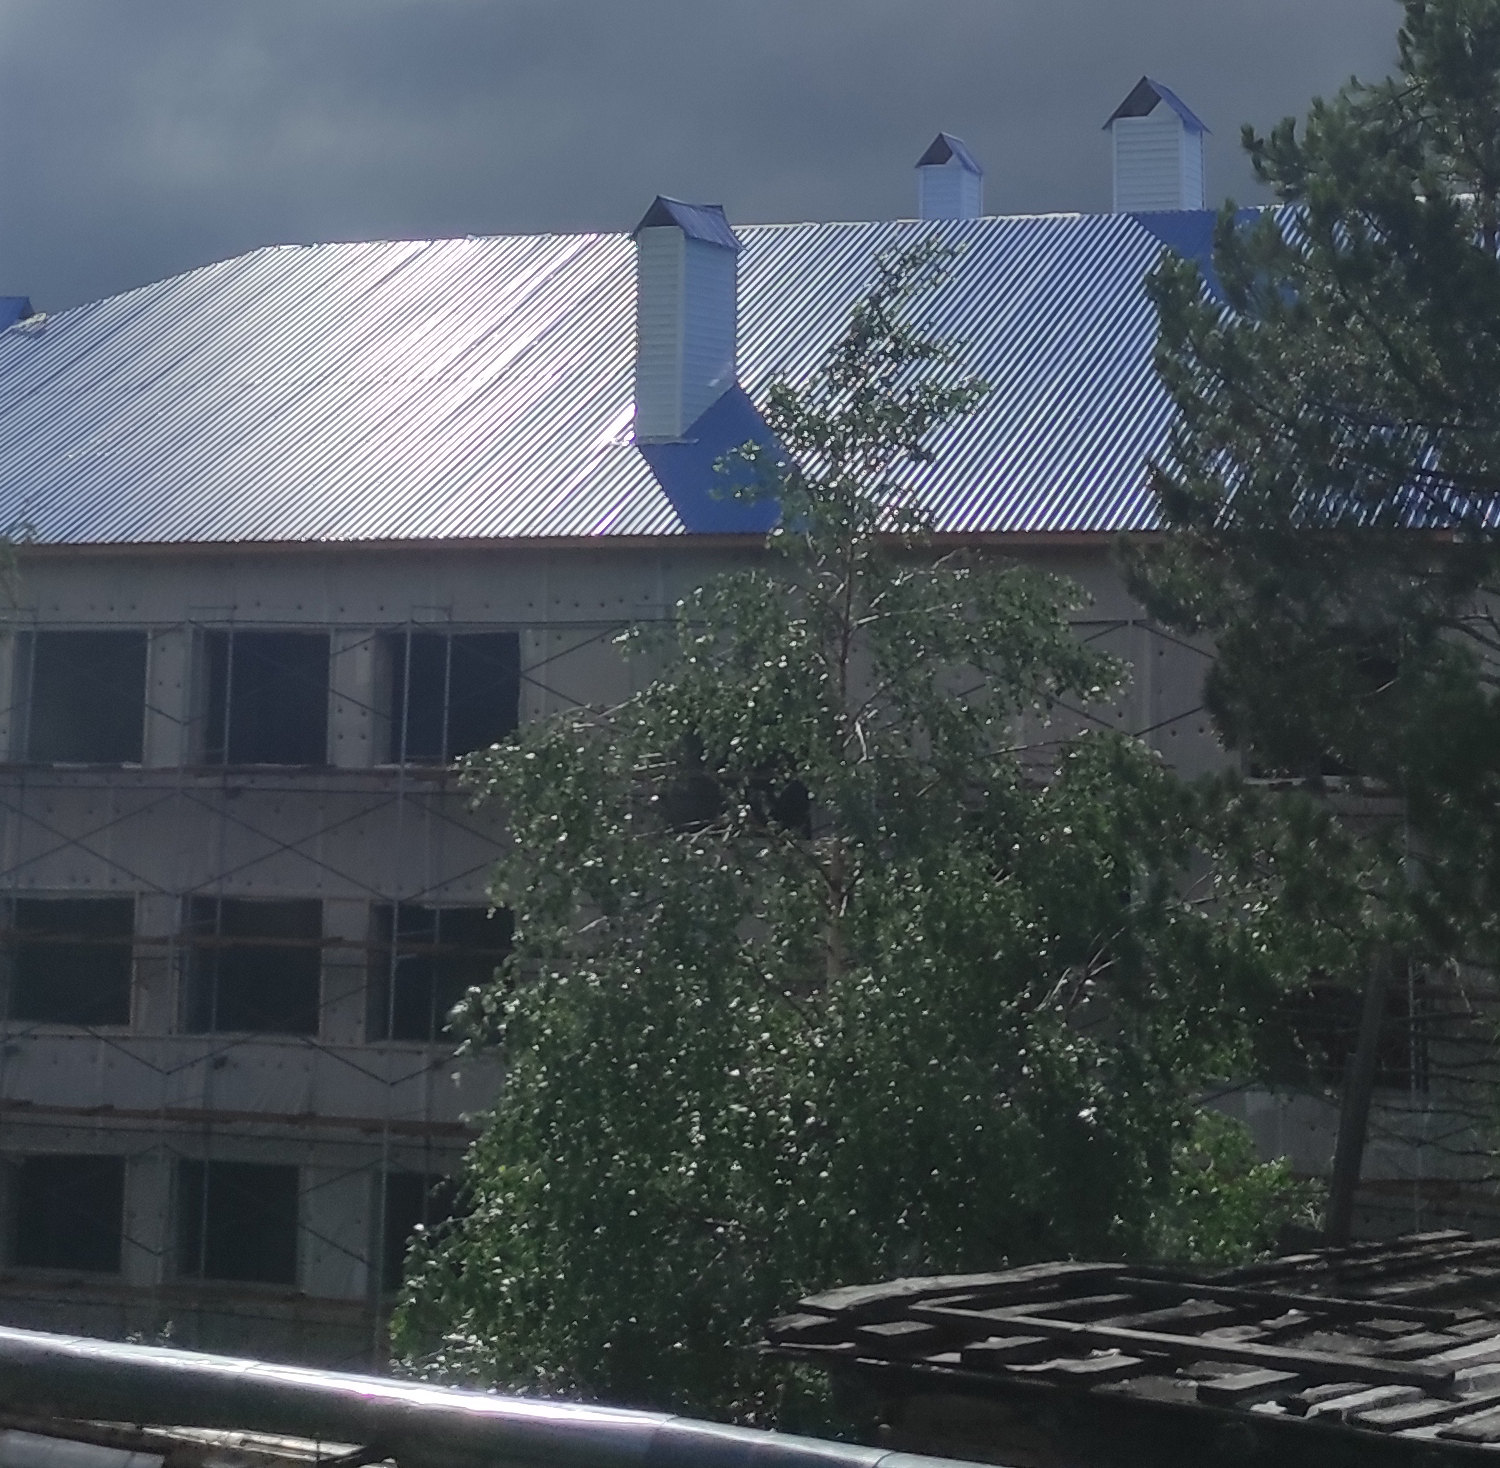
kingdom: Plantae
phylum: Tracheophyta
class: Magnoliopsida
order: Malpighiales
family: Salicaceae
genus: Populus
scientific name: Populus suaveolens
